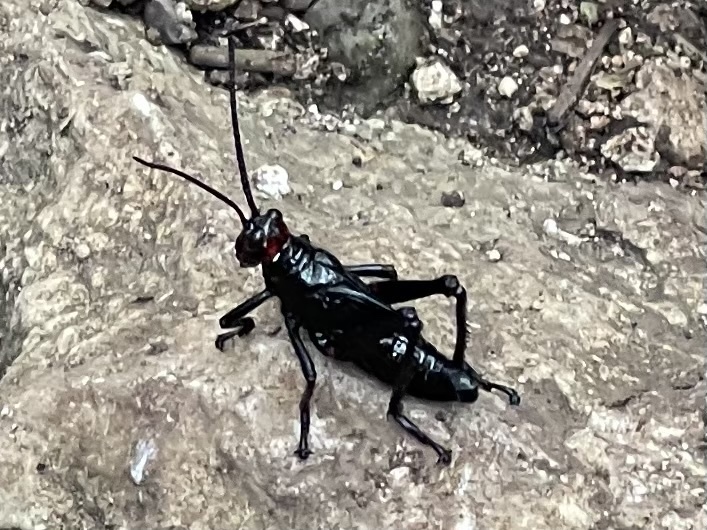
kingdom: Animalia
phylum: Arthropoda
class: Insecta
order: Orthoptera
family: Romaleidae
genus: Chromacris
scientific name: Chromacris miles
